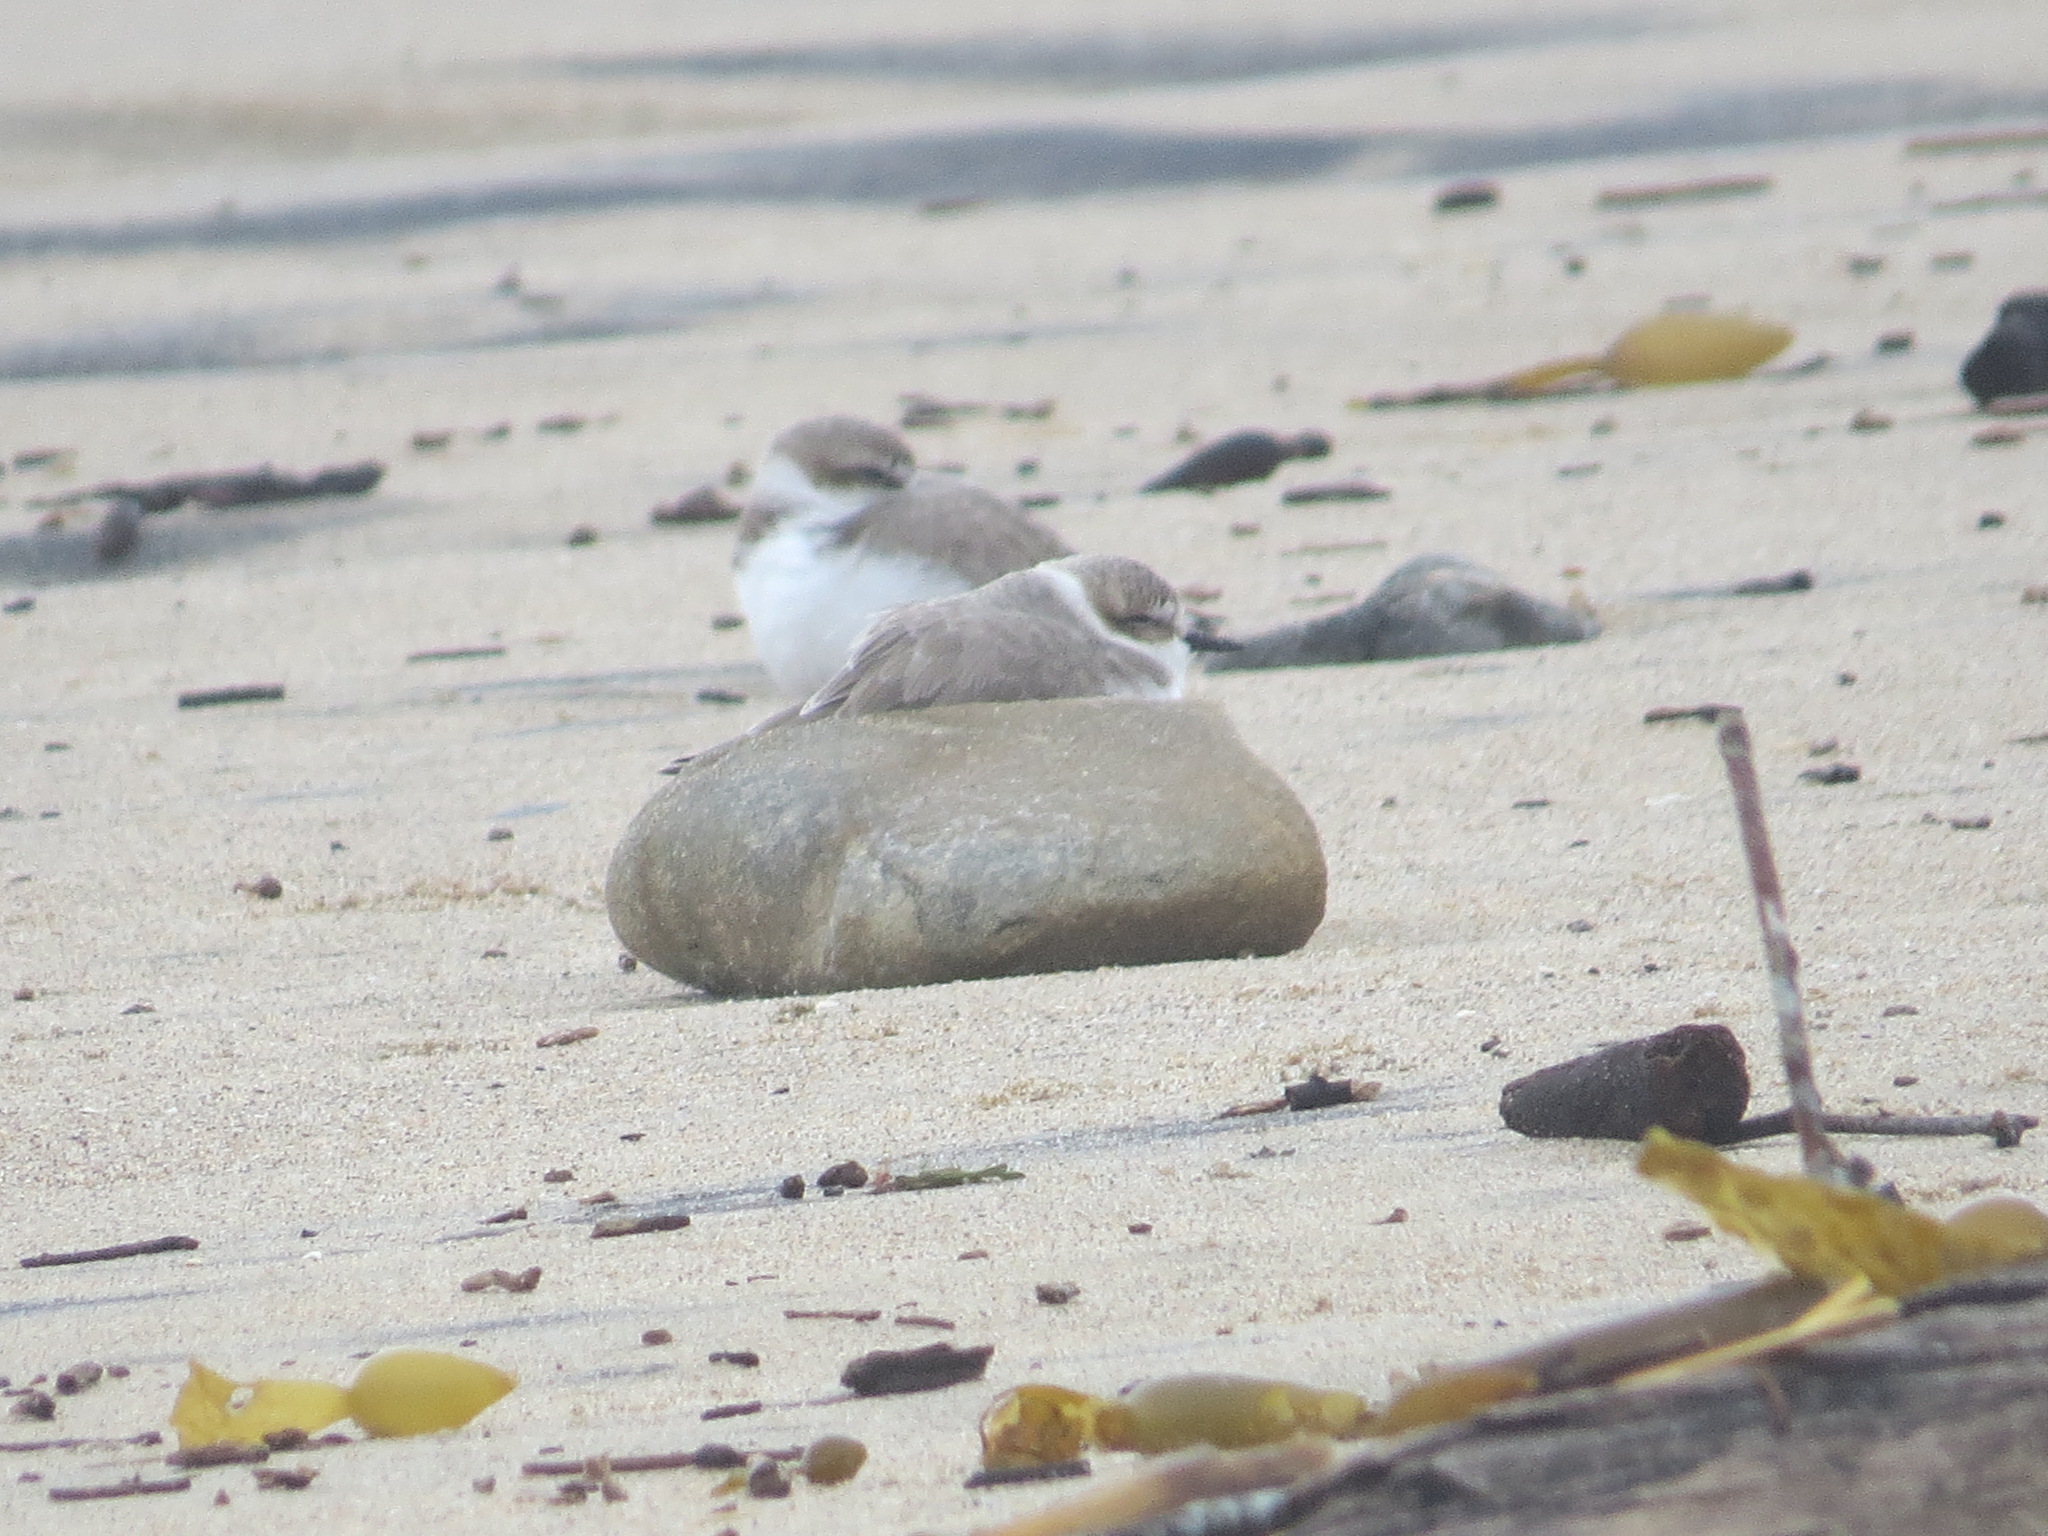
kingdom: Animalia
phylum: Chordata
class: Aves
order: Charadriiformes
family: Charadriidae
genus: Anarhynchus
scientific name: Anarhynchus
